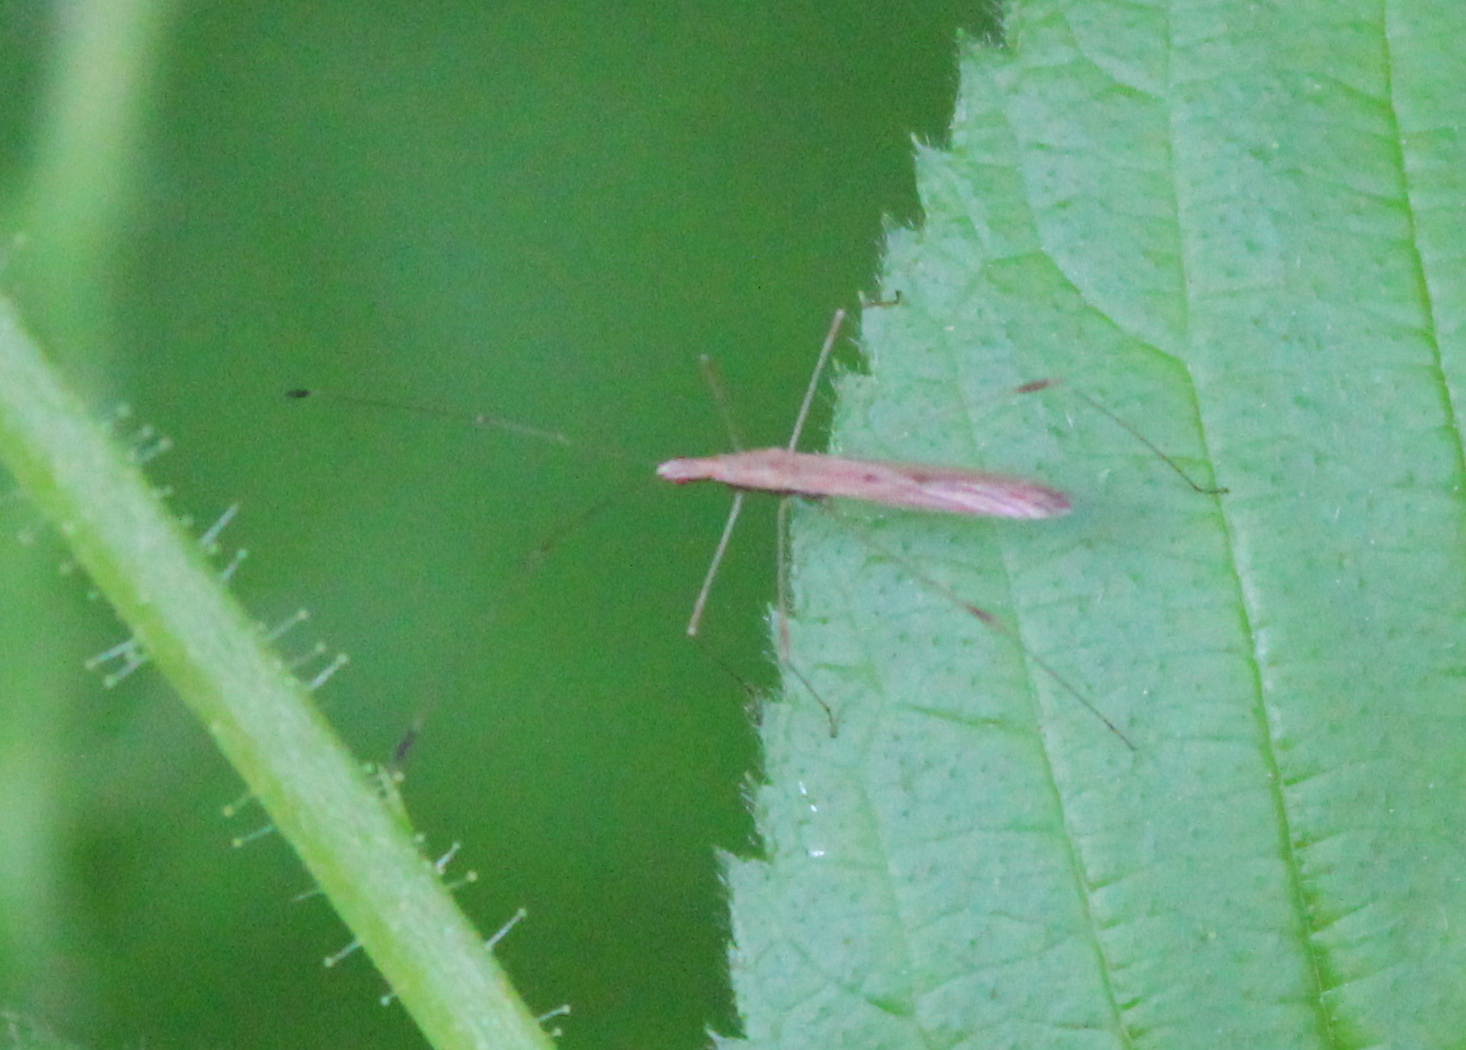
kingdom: Animalia
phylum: Arthropoda
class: Insecta
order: Hemiptera
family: Berytidae
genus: Neoneides
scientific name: Neoneides muticus
